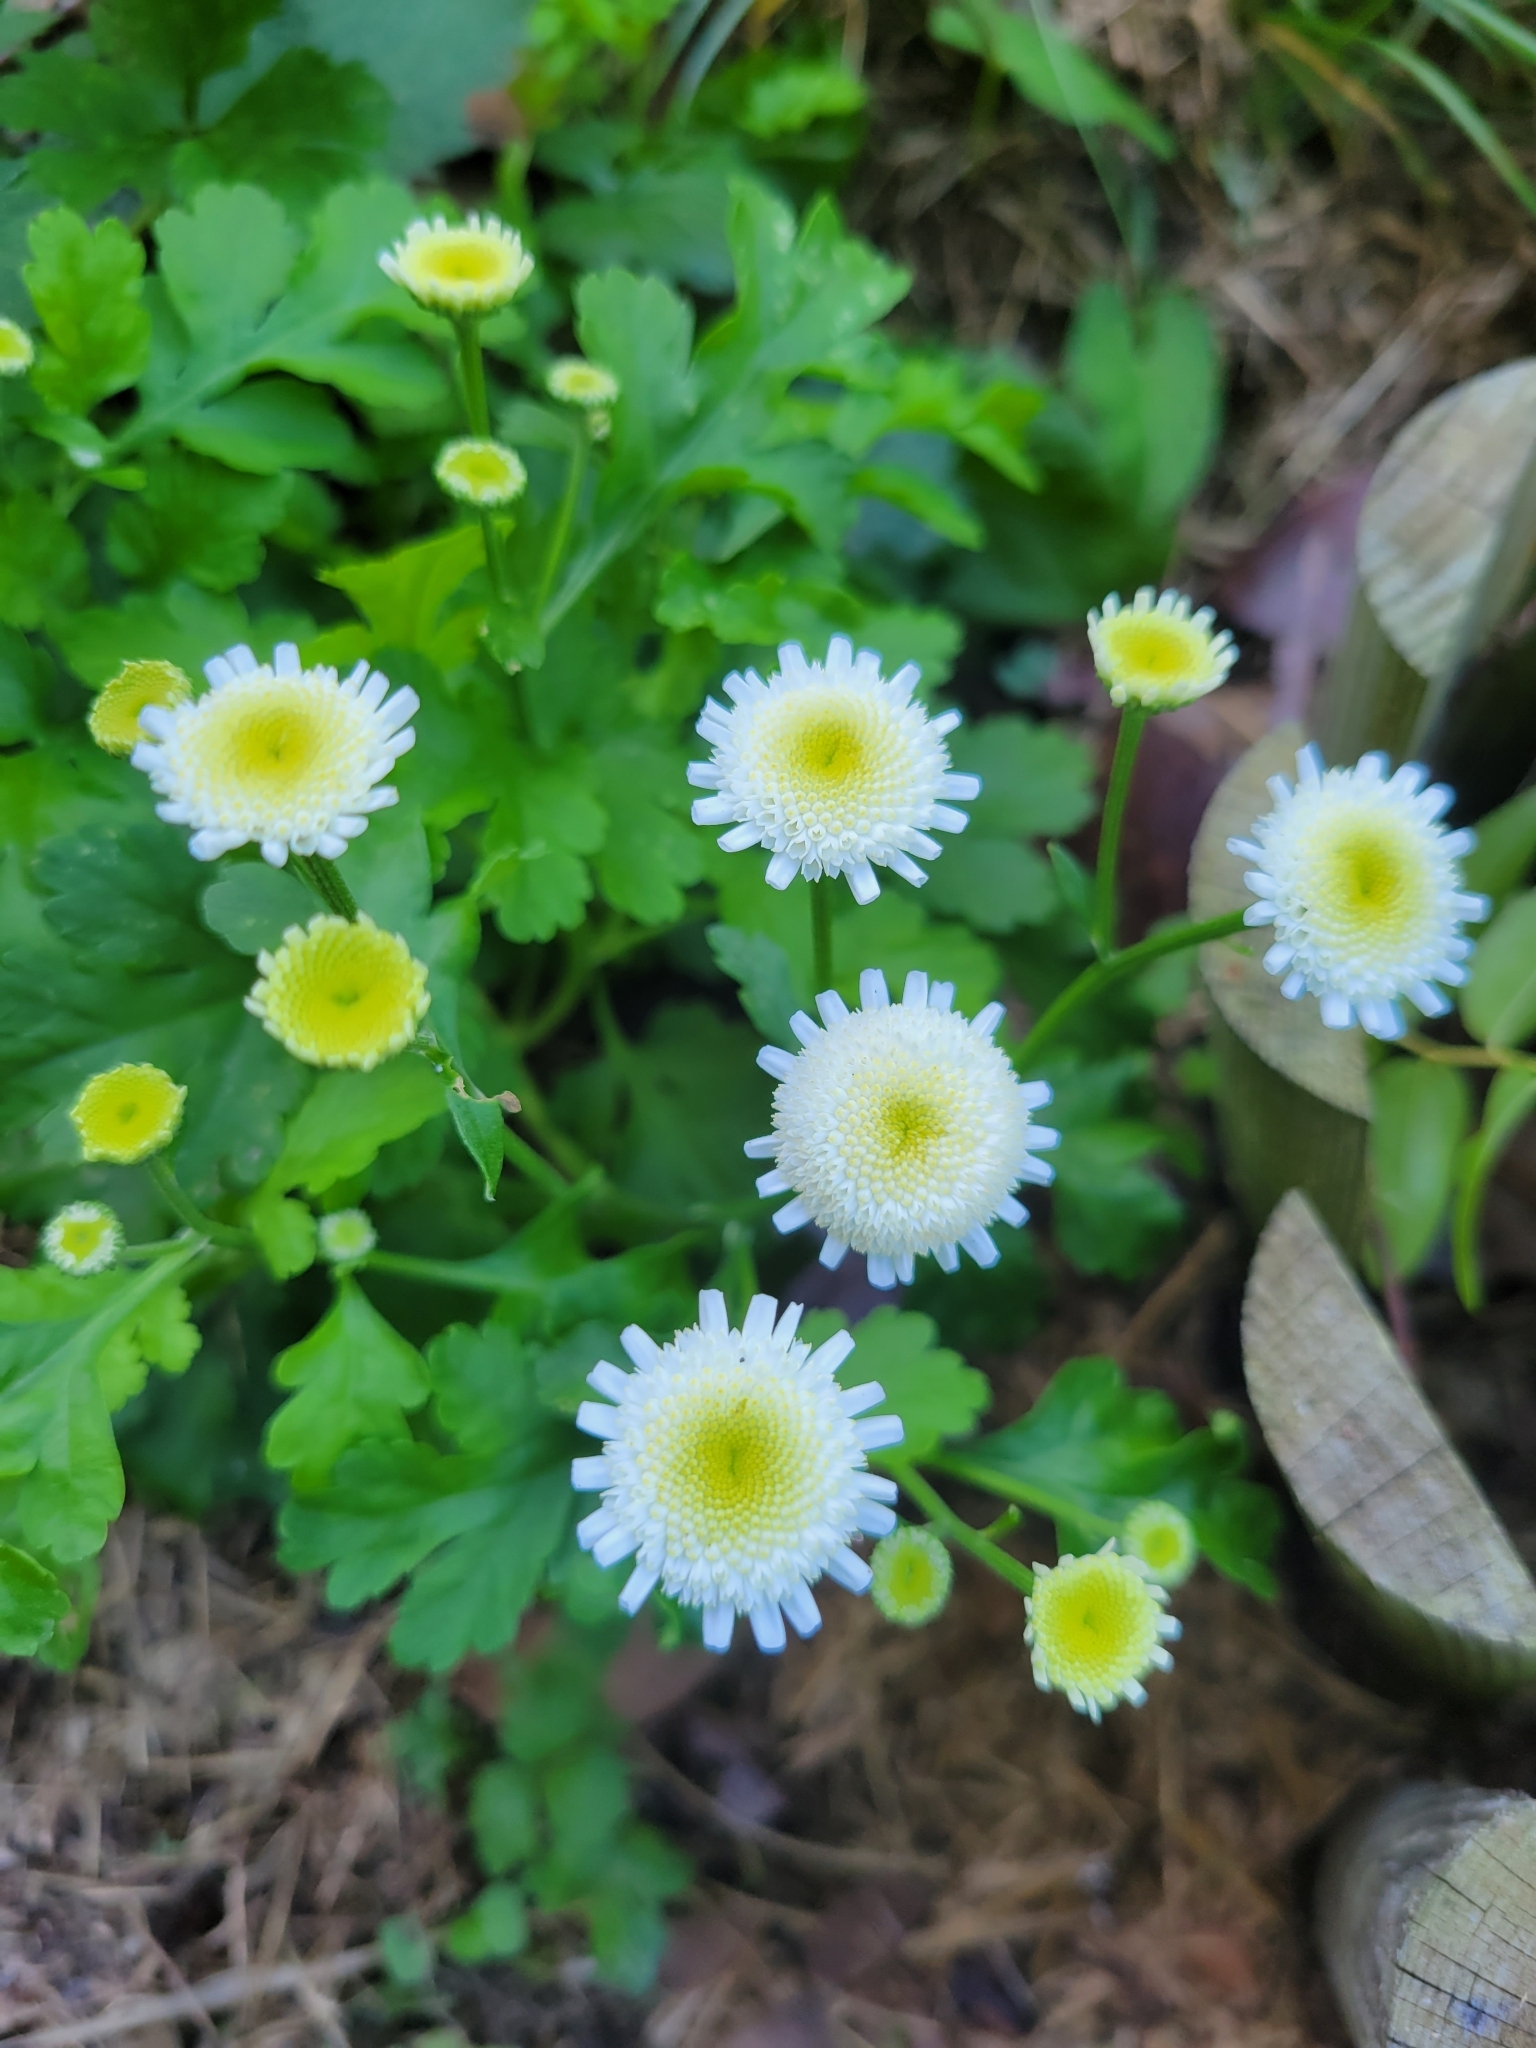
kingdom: Plantae
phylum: Tracheophyta
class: Magnoliopsida
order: Asterales
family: Asteraceae
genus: Tanacetum
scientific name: Tanacetum parthenium
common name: Feverfew
